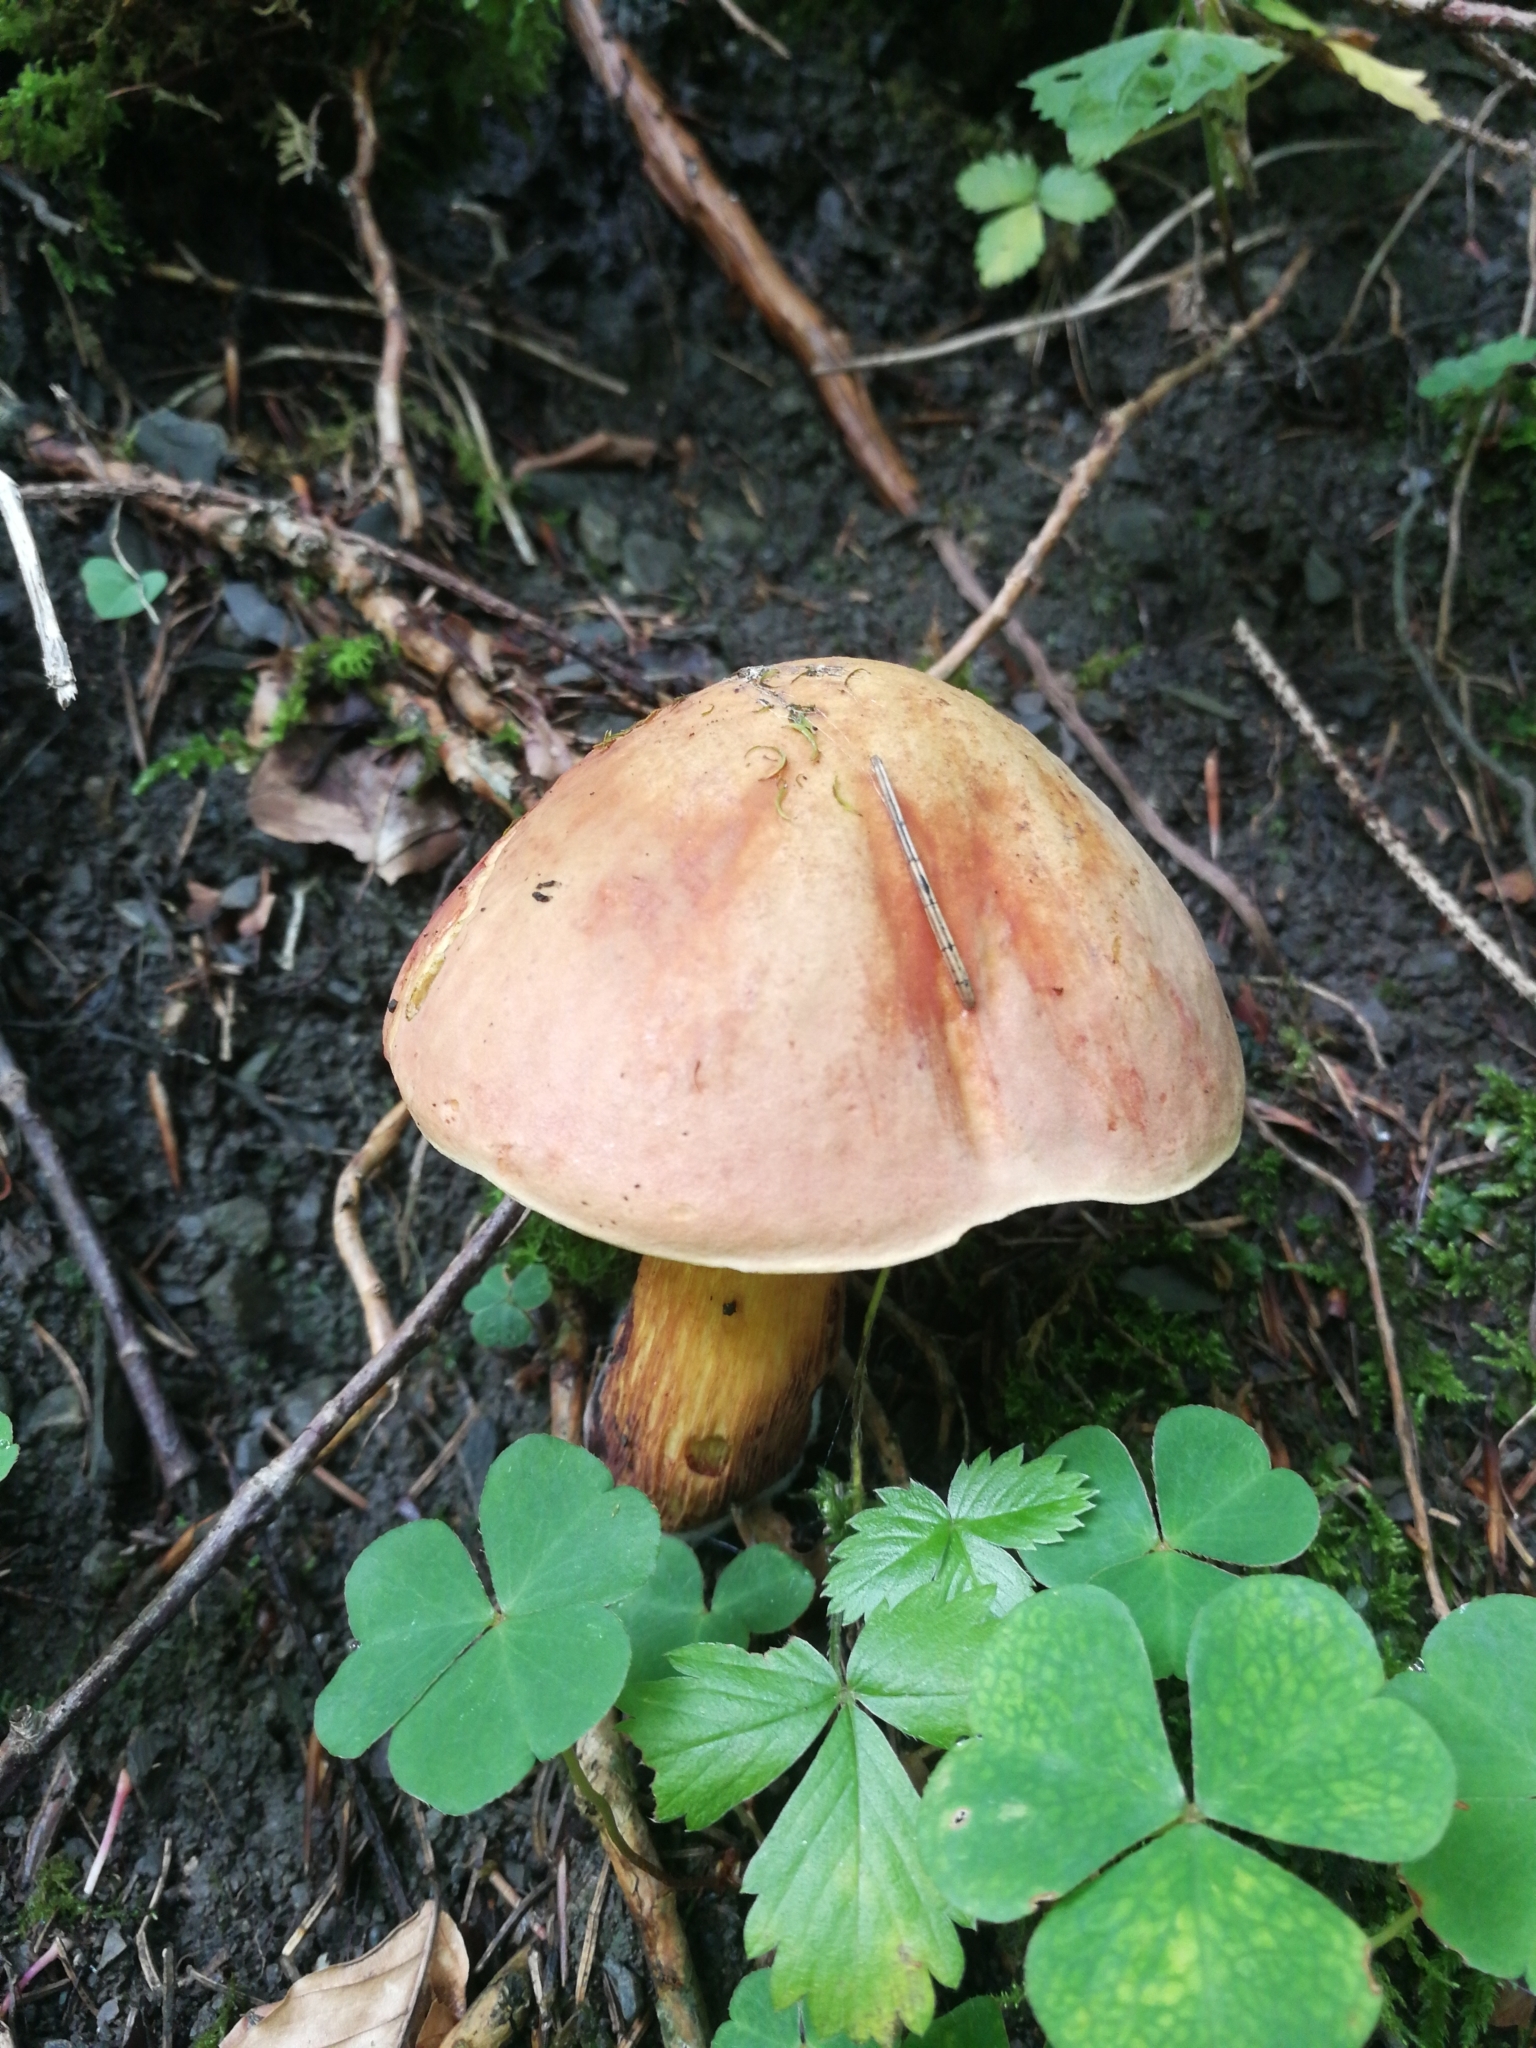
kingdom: Fungi
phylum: Basidiomycota
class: Agaricomycetes
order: Boletales
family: Boletaceae
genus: Suillellus
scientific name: Suillellus luridus
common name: Lurid bolete
